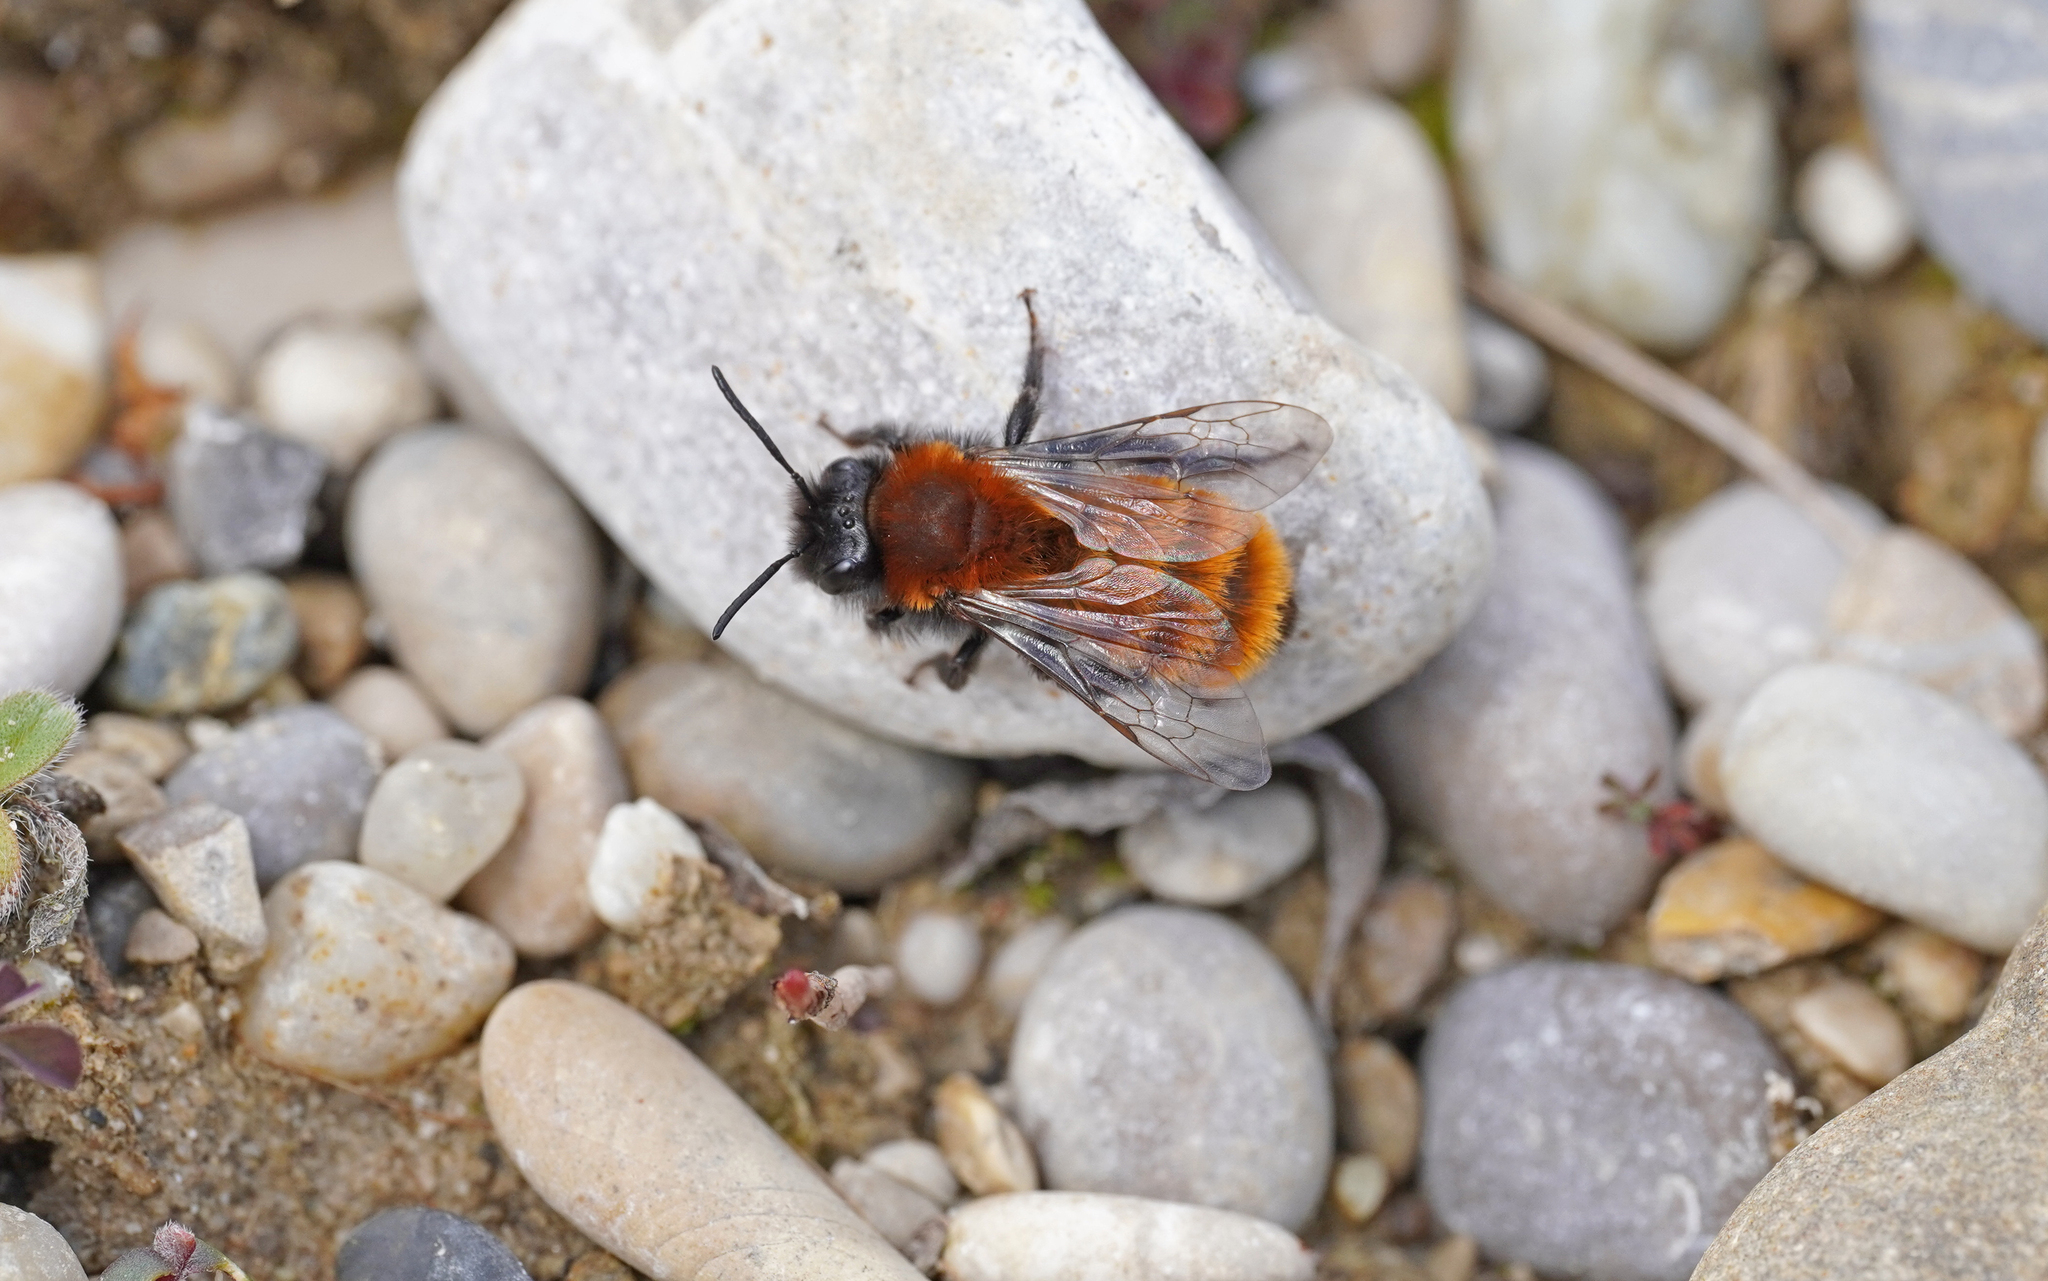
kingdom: Animalia
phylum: Arthropoda
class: Insecta
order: Hymenoptera
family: Andrenidae
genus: Andrena
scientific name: Andrena fulva
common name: Tawny mining bee
